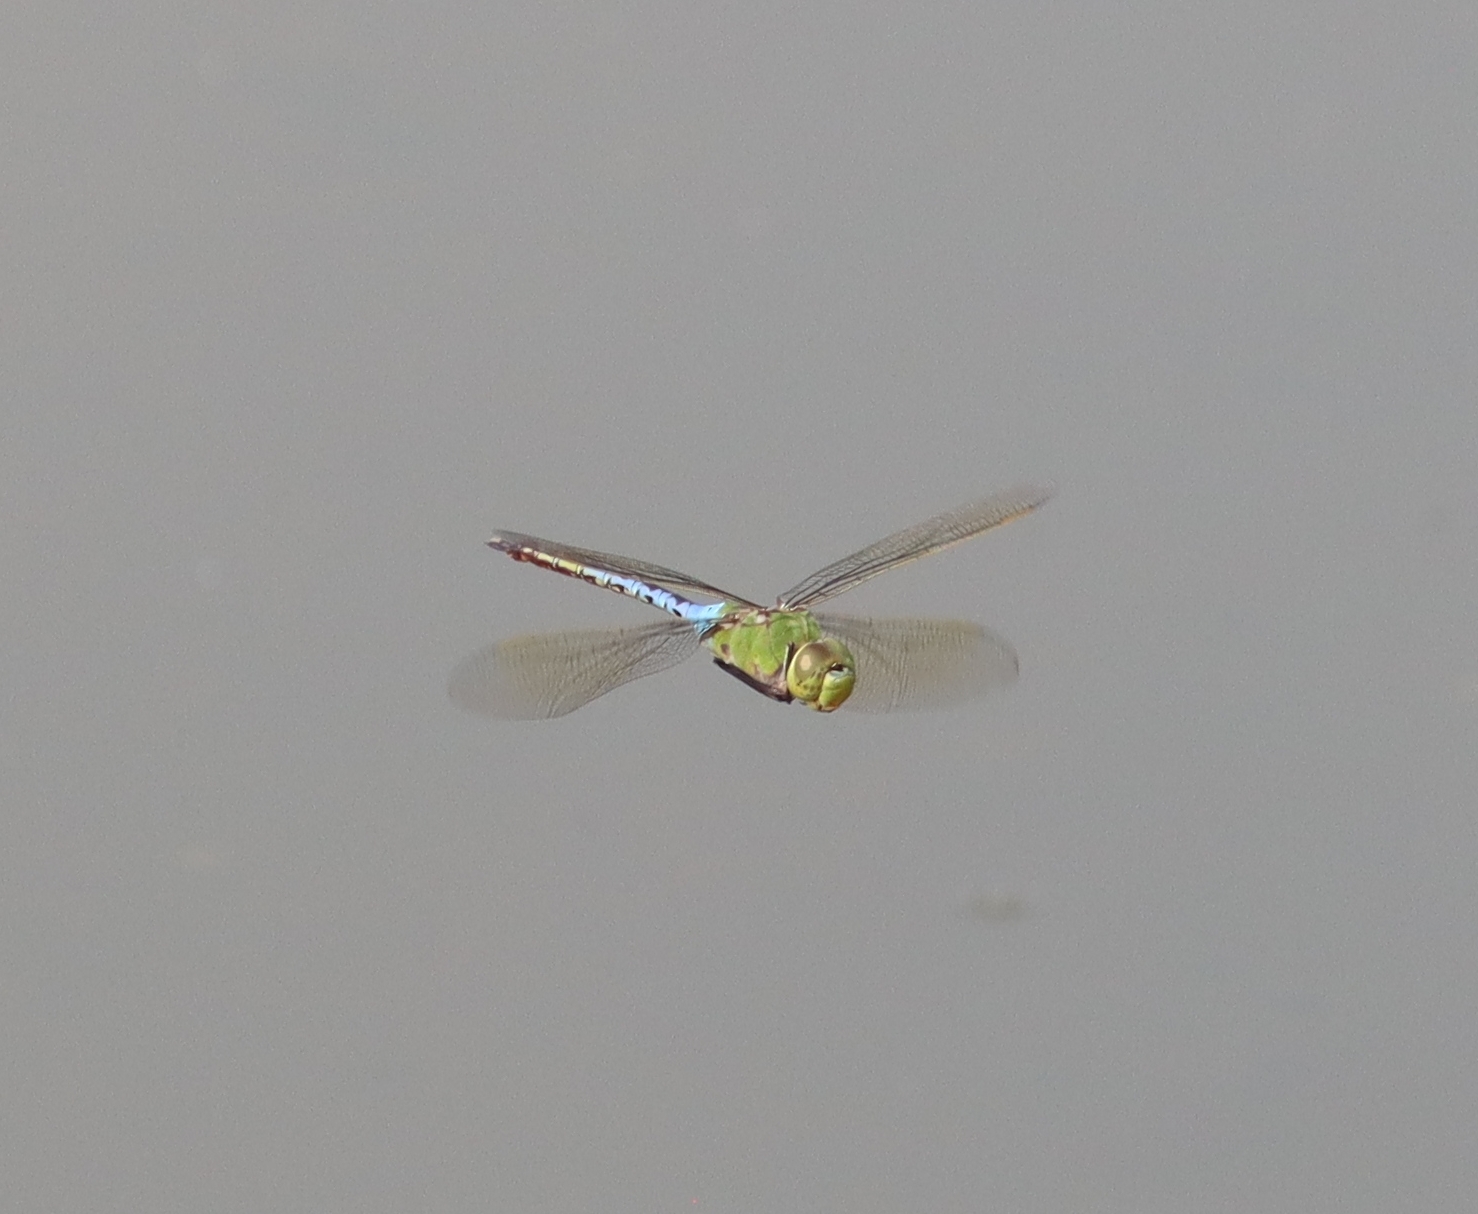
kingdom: Animalia
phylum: Arthropoda
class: Insecta
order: Odonata
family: Aeshnidae
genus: Anax
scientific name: Anax junius
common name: Common green darner
